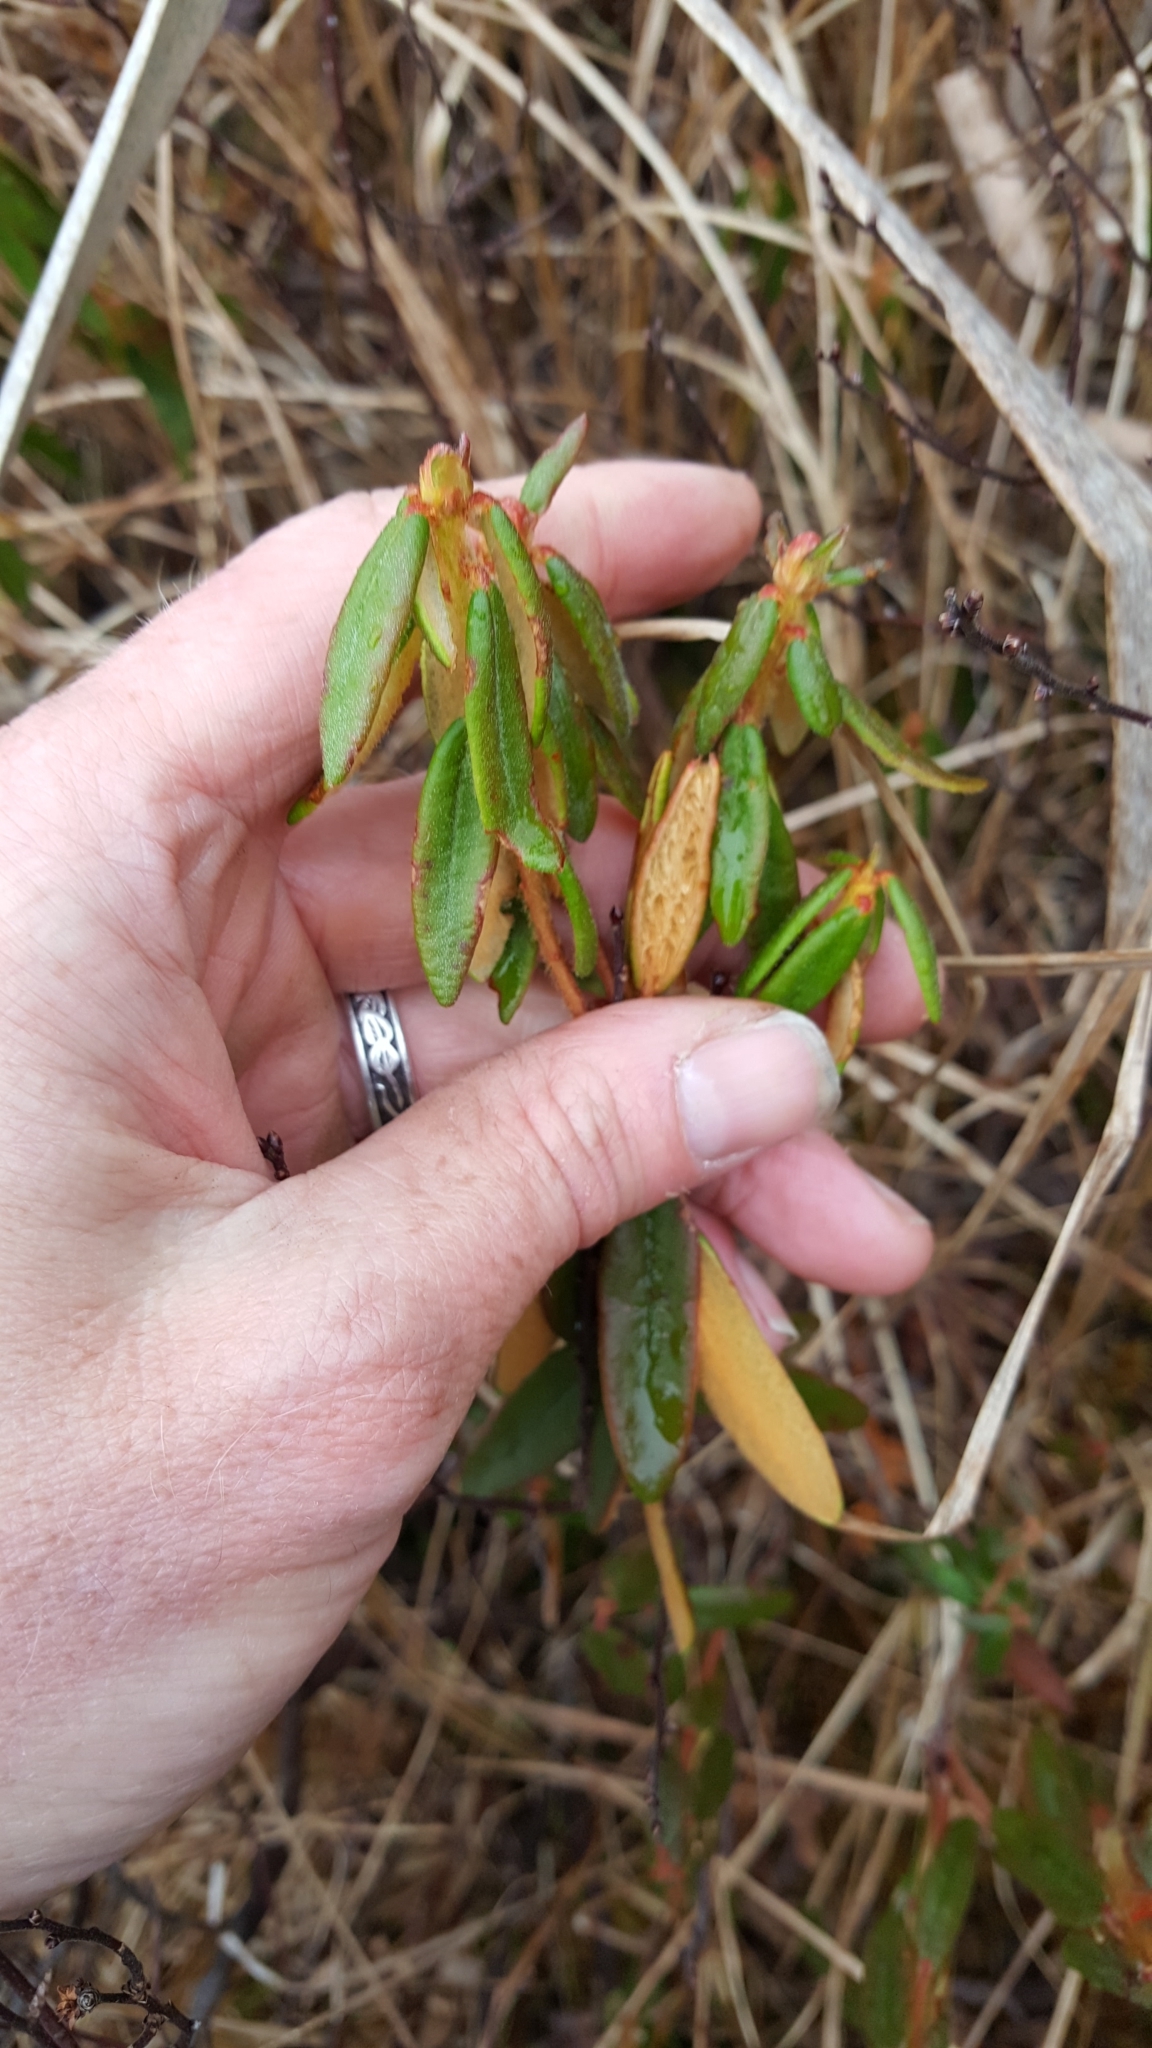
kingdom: Plantae
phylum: Tracheophyta
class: Magnoliopsida
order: Ericales
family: Ericaceae
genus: Rhododendron
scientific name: Rhododendron groenlandicum
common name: Bog labrador tea
